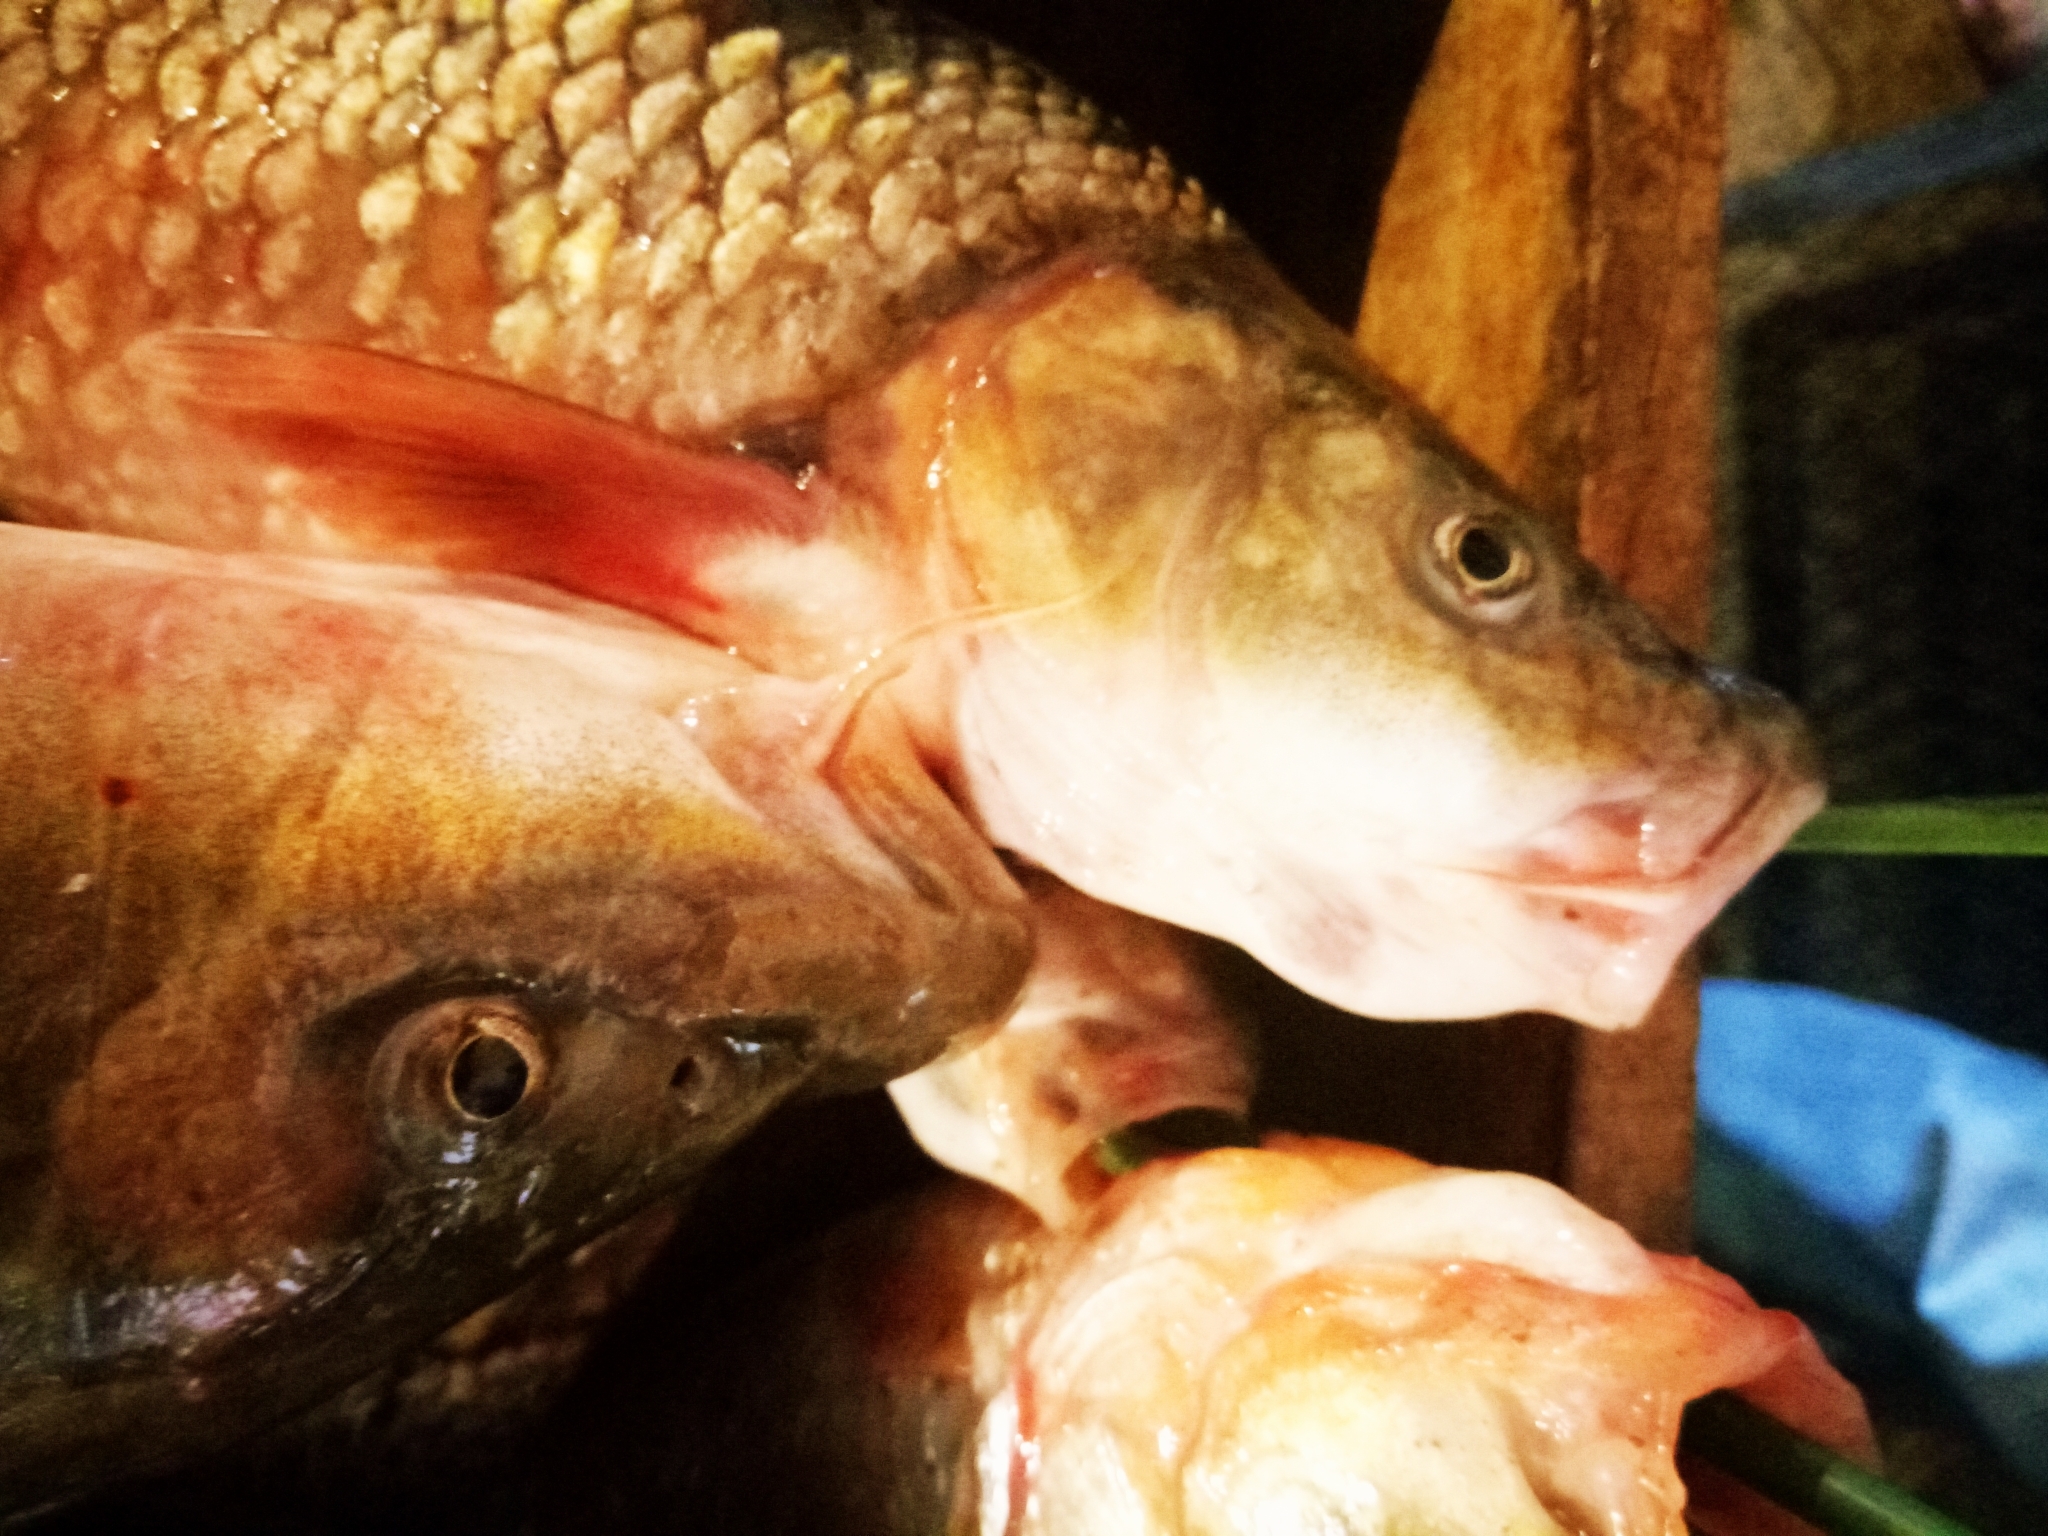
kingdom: Animalia
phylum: Chordata
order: Cypriniformes
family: Cyprinidae
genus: Luciobarbus
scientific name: Luciobarbus numidiensis
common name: Numidian barbel
